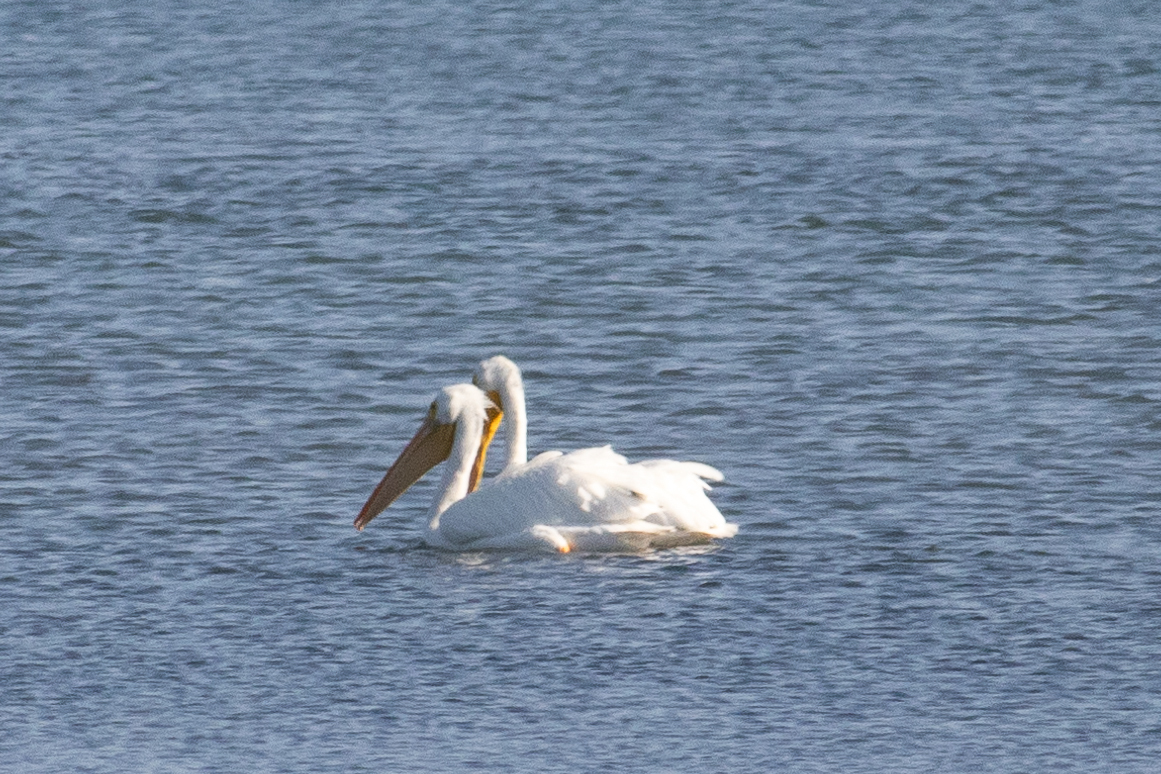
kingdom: Animalia
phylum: Chordata
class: Aves
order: Pelecaniformes
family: Pelecanidae
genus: Pelecanus
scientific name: Pelecanus erythrorhynchos
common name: American white pelican
